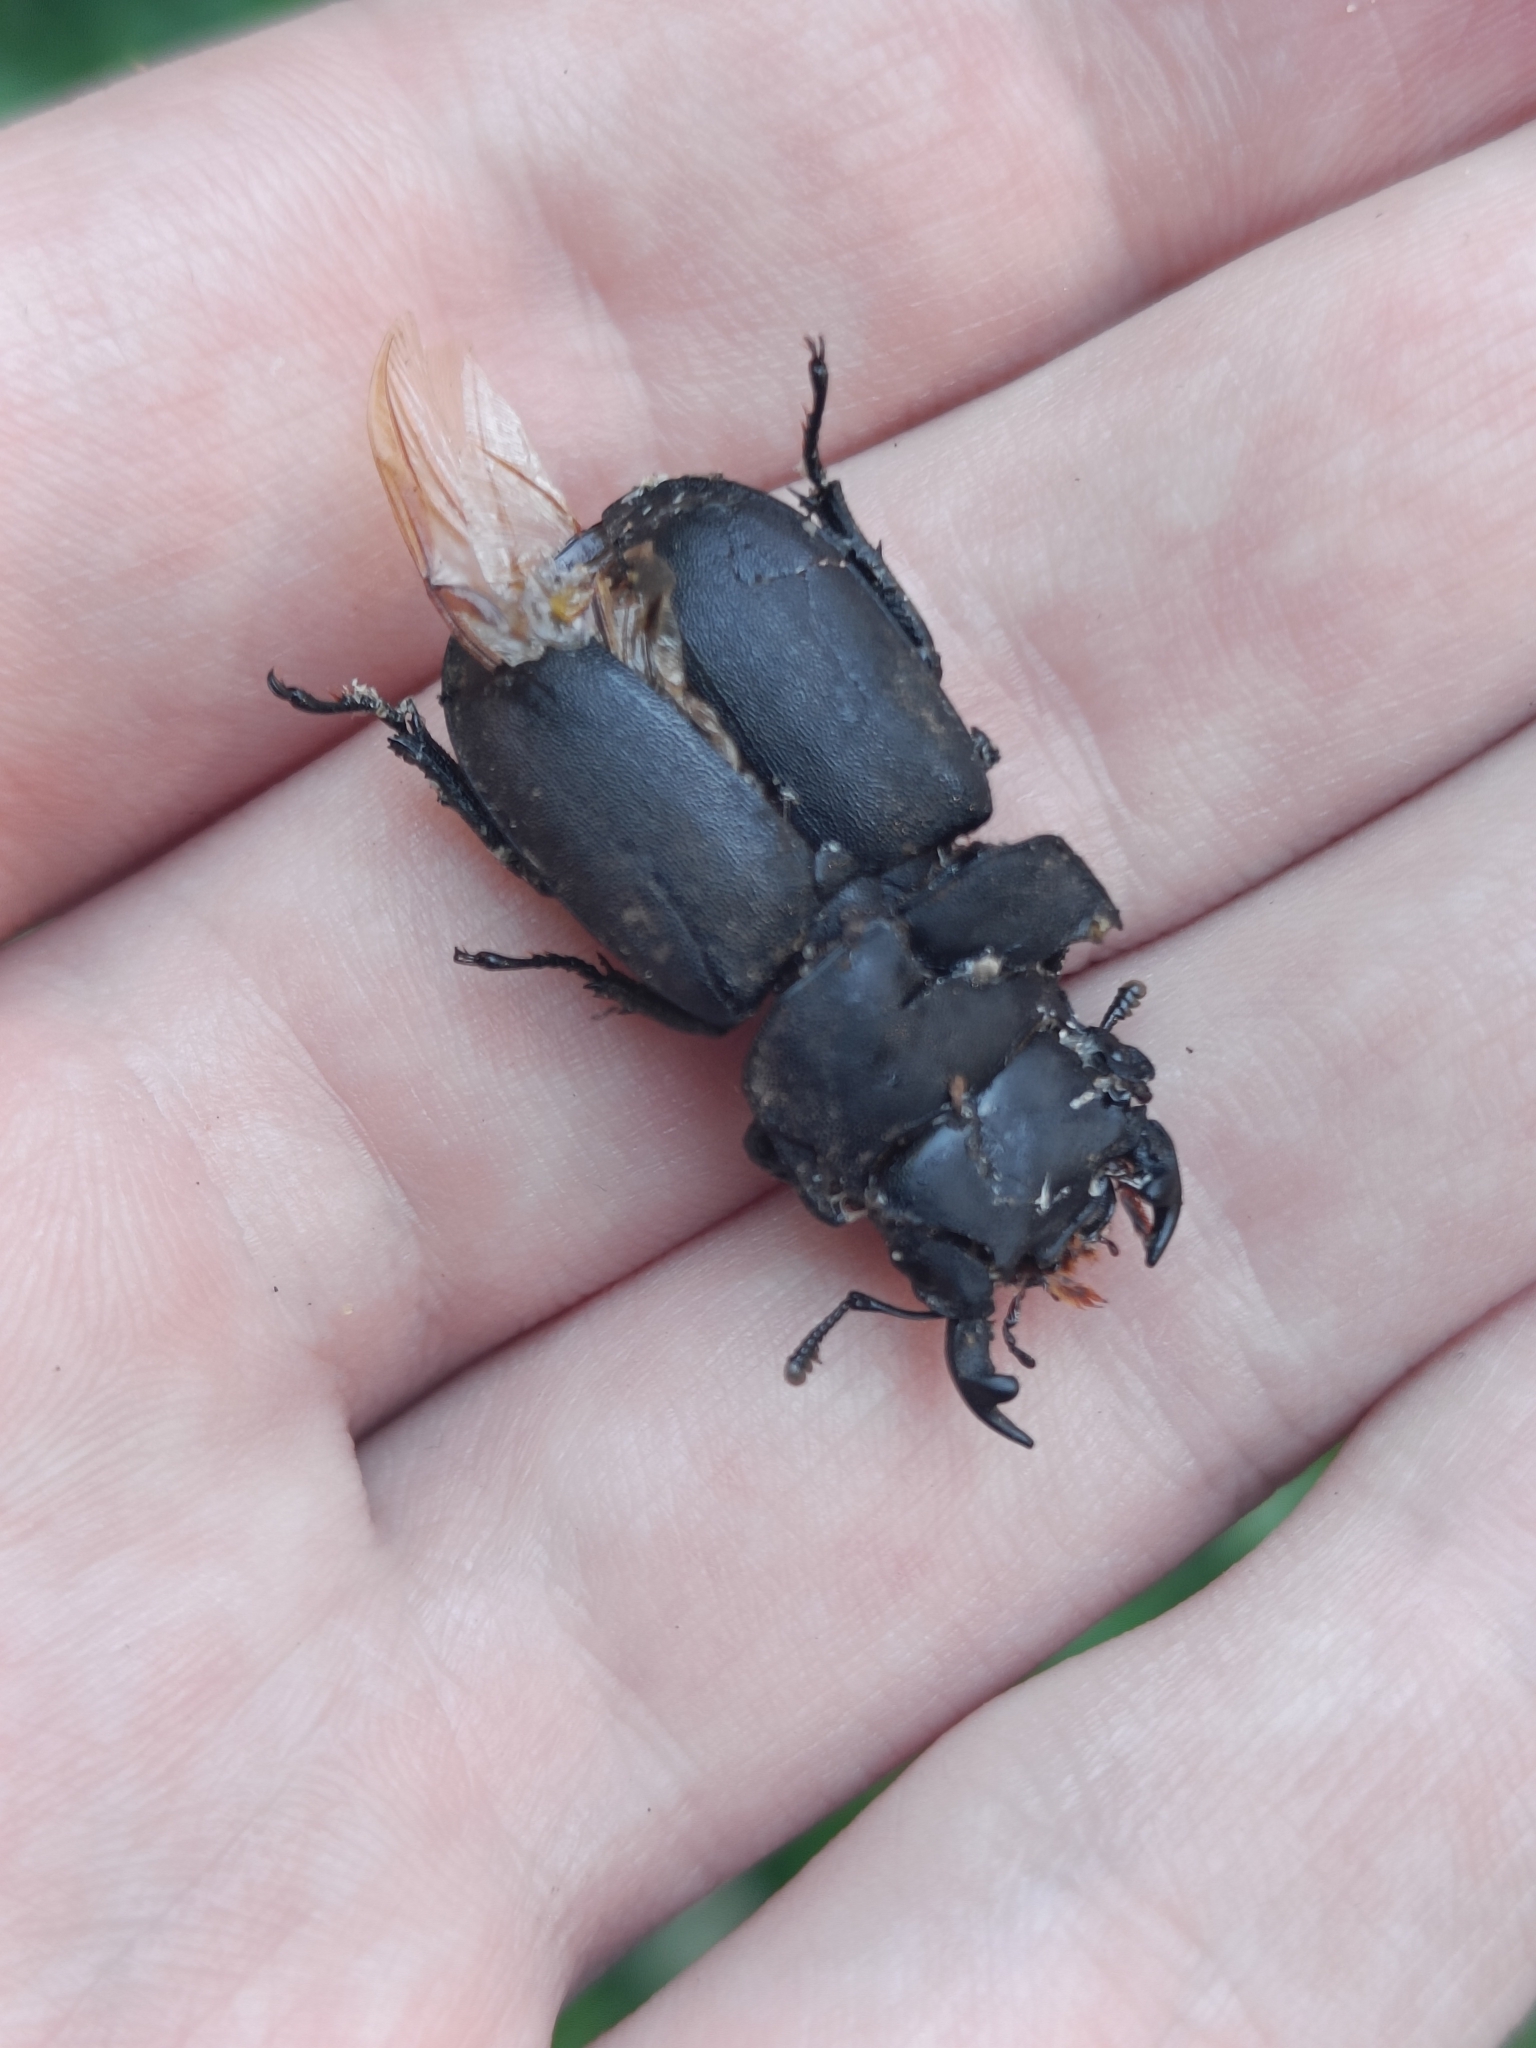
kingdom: Animalia
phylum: Arthropoda
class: Insecta
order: Coleoptera
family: Lucanidae
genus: Dorcus
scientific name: Dorcus parallelipipedus
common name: Lesser stag beetle
